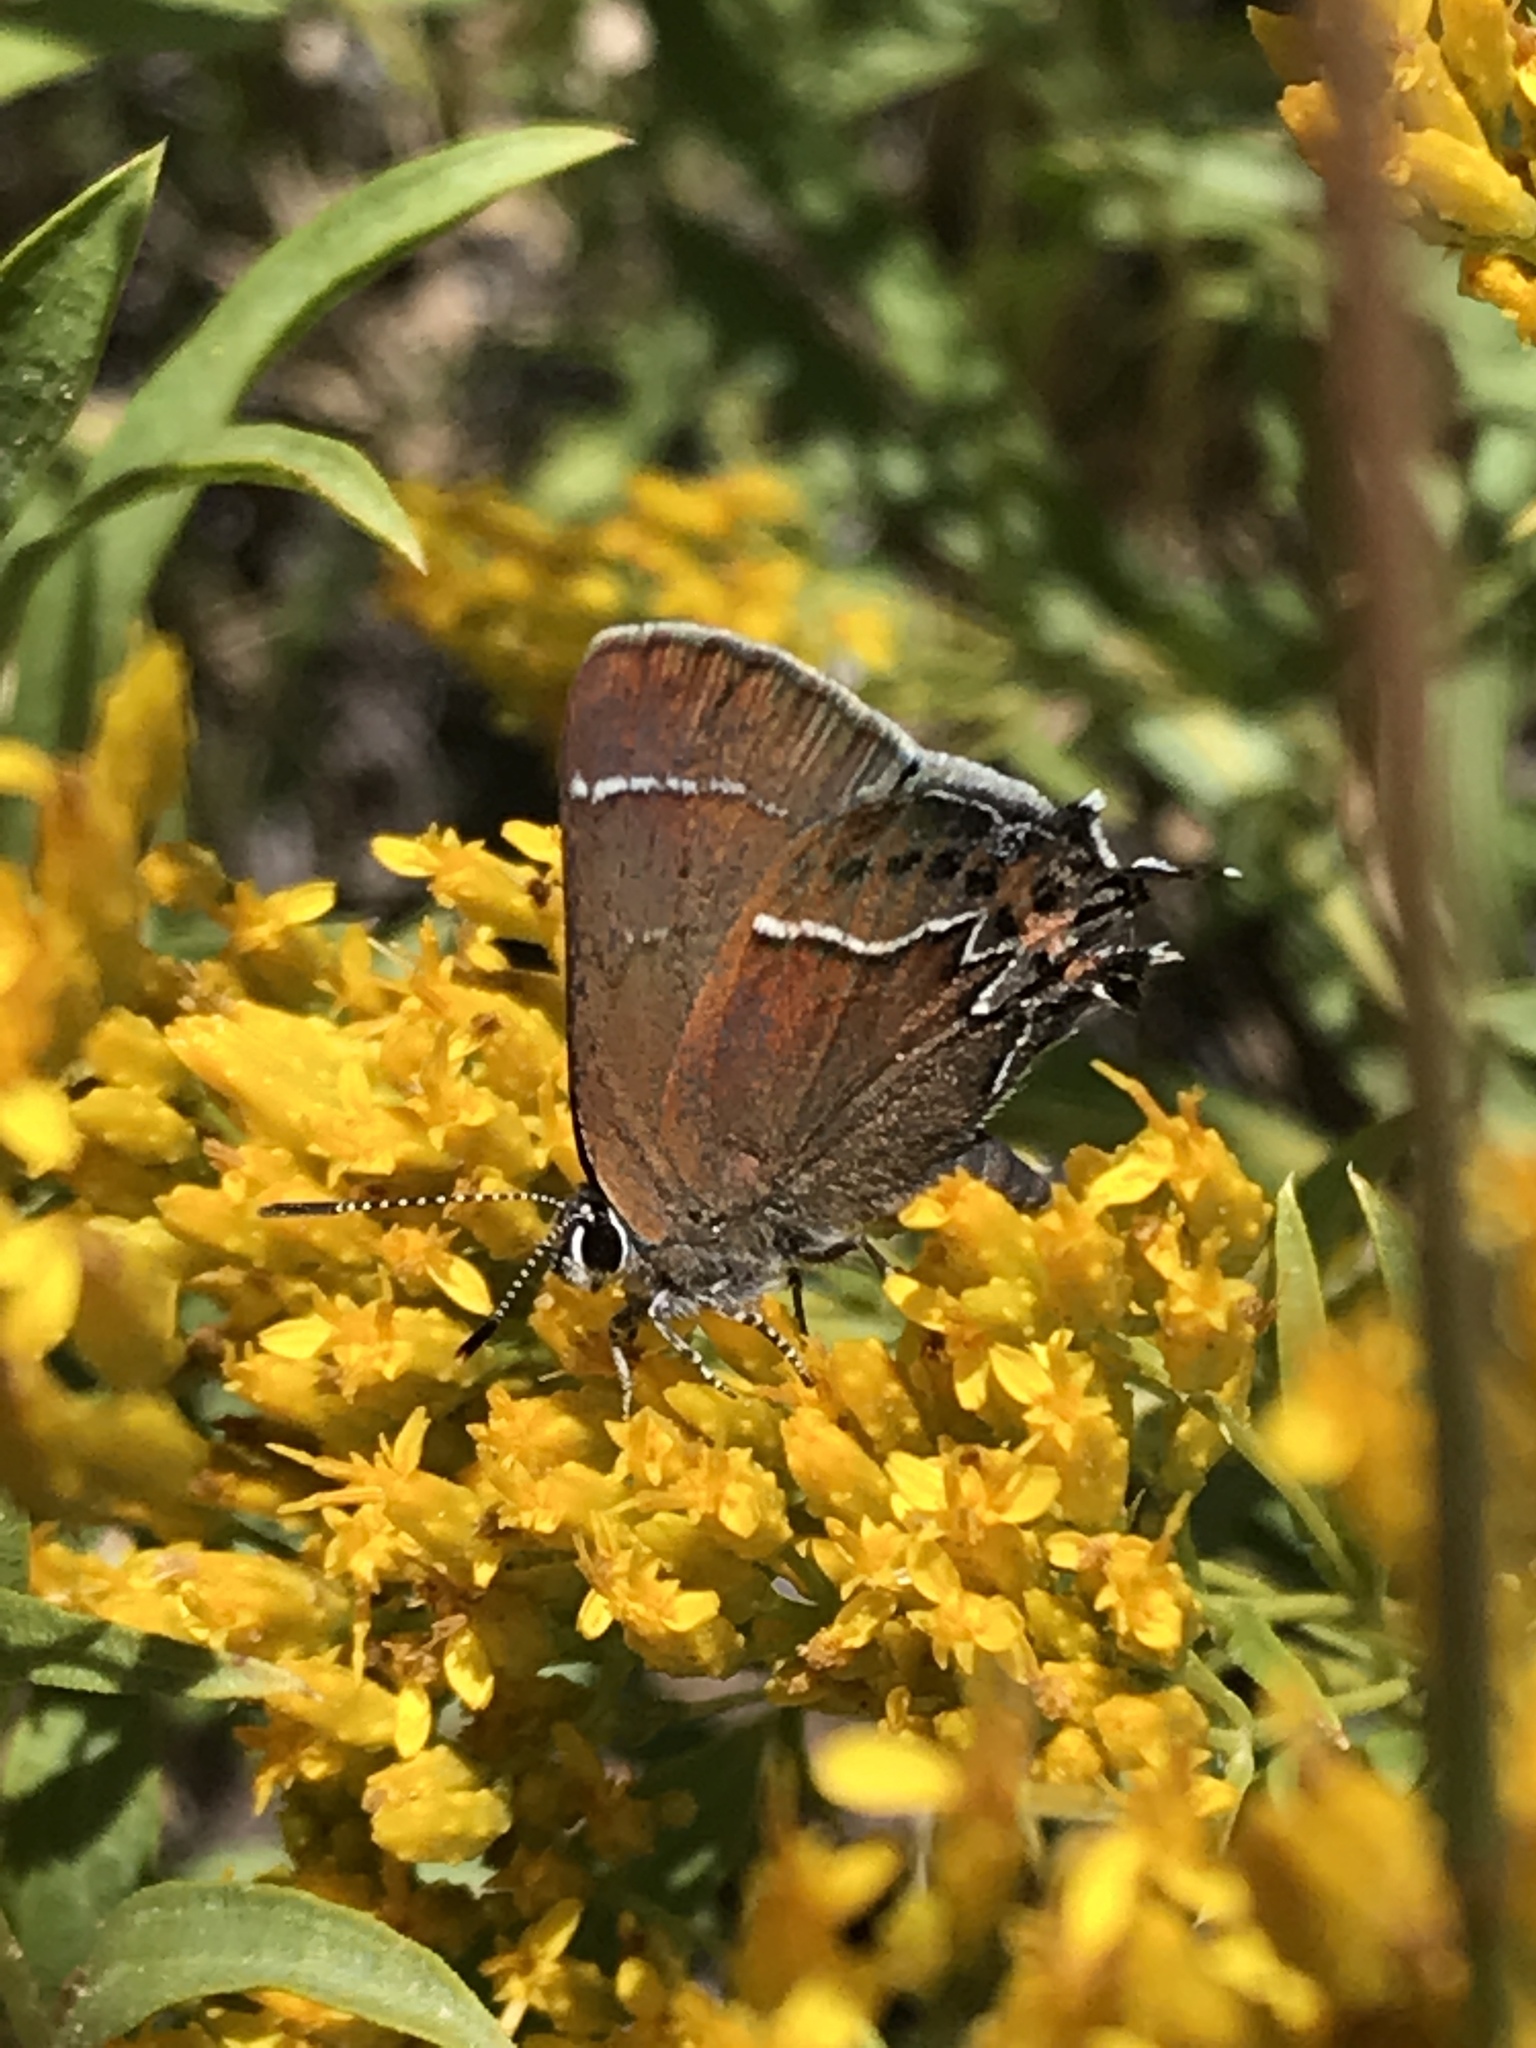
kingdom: Animalia
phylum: Arthropoda
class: Insecta
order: Lepidoptera
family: Lycaenidae
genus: Mitoura
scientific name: Mitoura spinetorum
